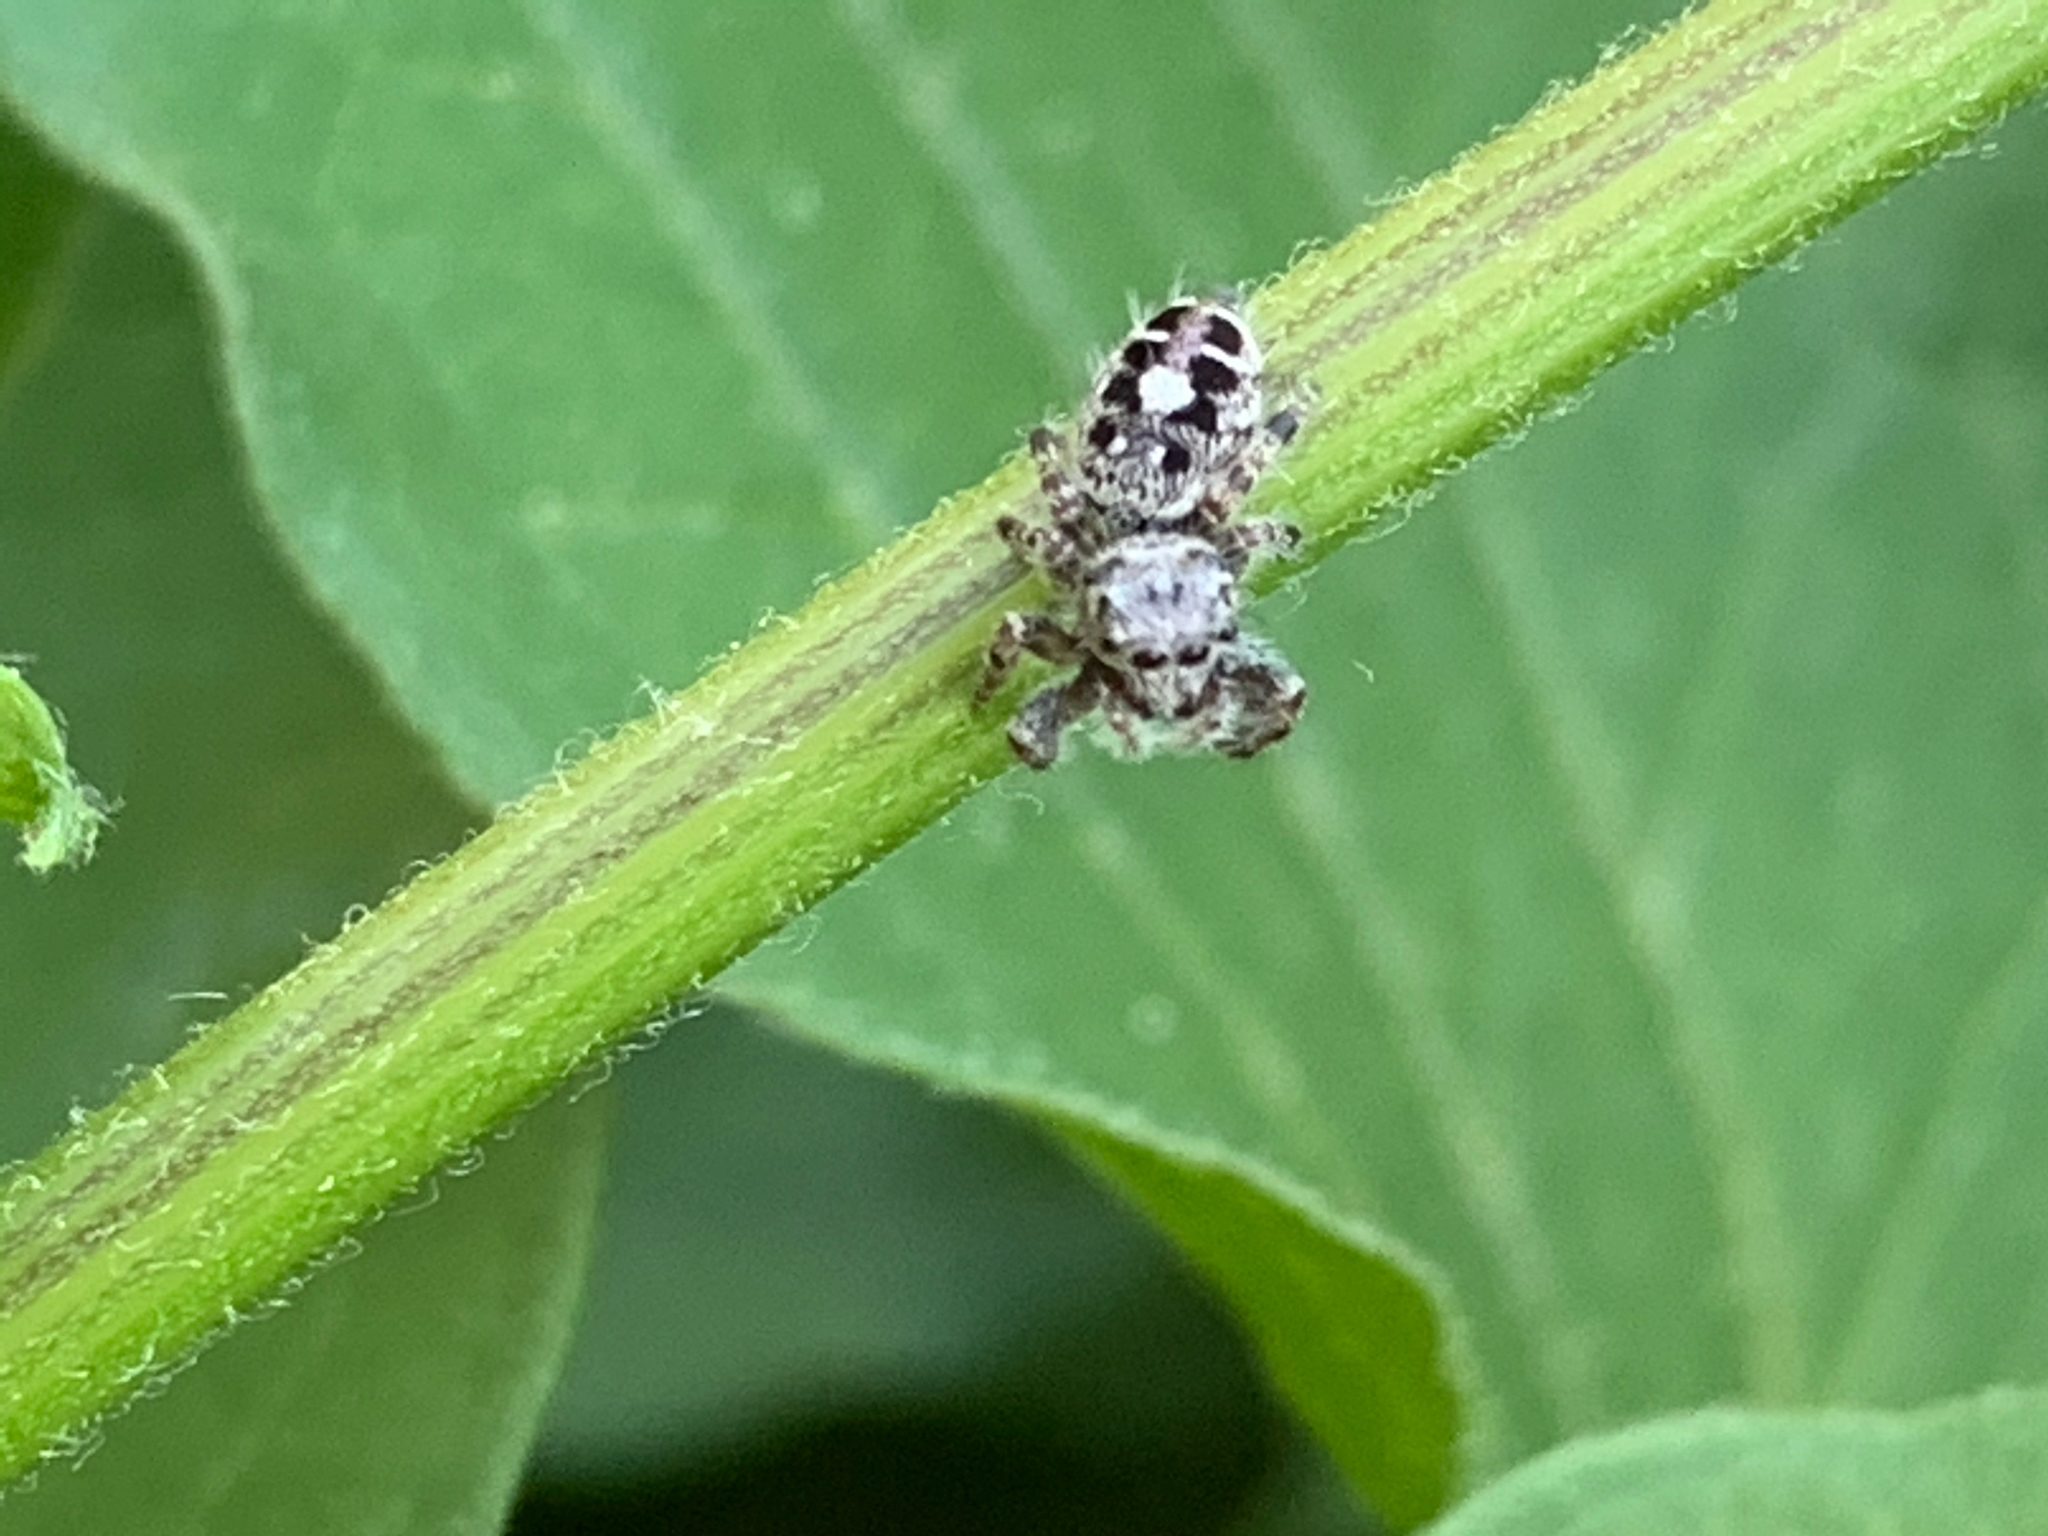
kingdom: Animalia
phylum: Arthropoda
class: Arachnida
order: Araneae
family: Salticidae
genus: Phidippus
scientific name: Phidippus putnami
